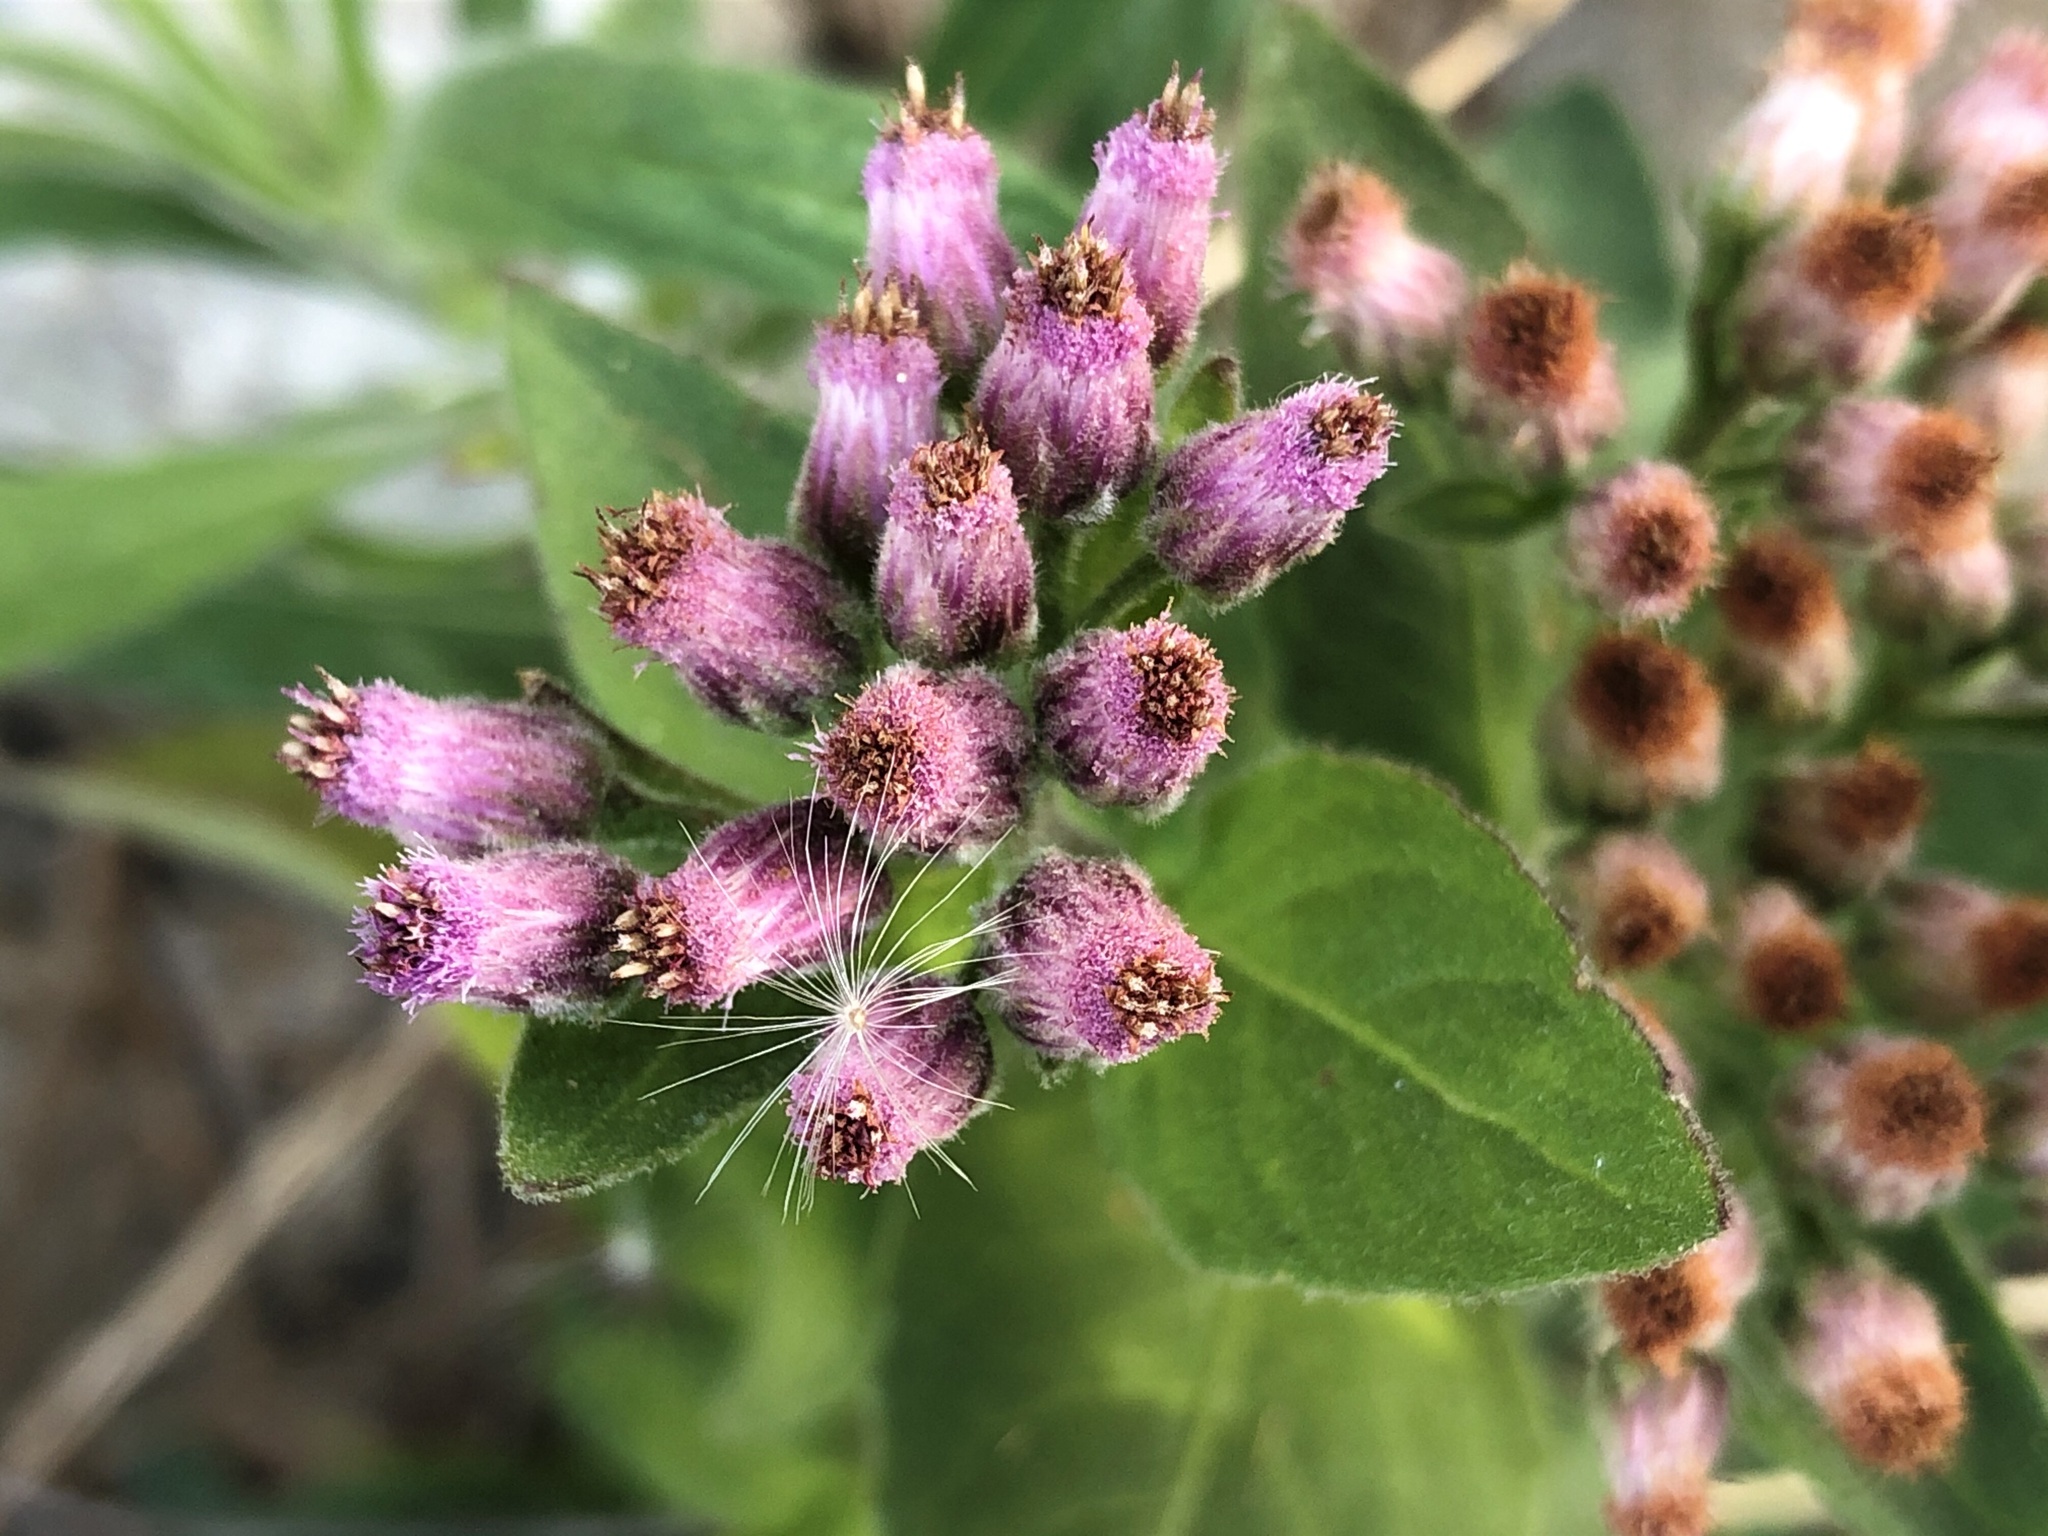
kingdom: Plantae
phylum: Tracheophyta
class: Magnoliopsida
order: Asterales
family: Asteraceae
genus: Pluchea
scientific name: Pluchea odorata
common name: Saltmarsh fleabane
